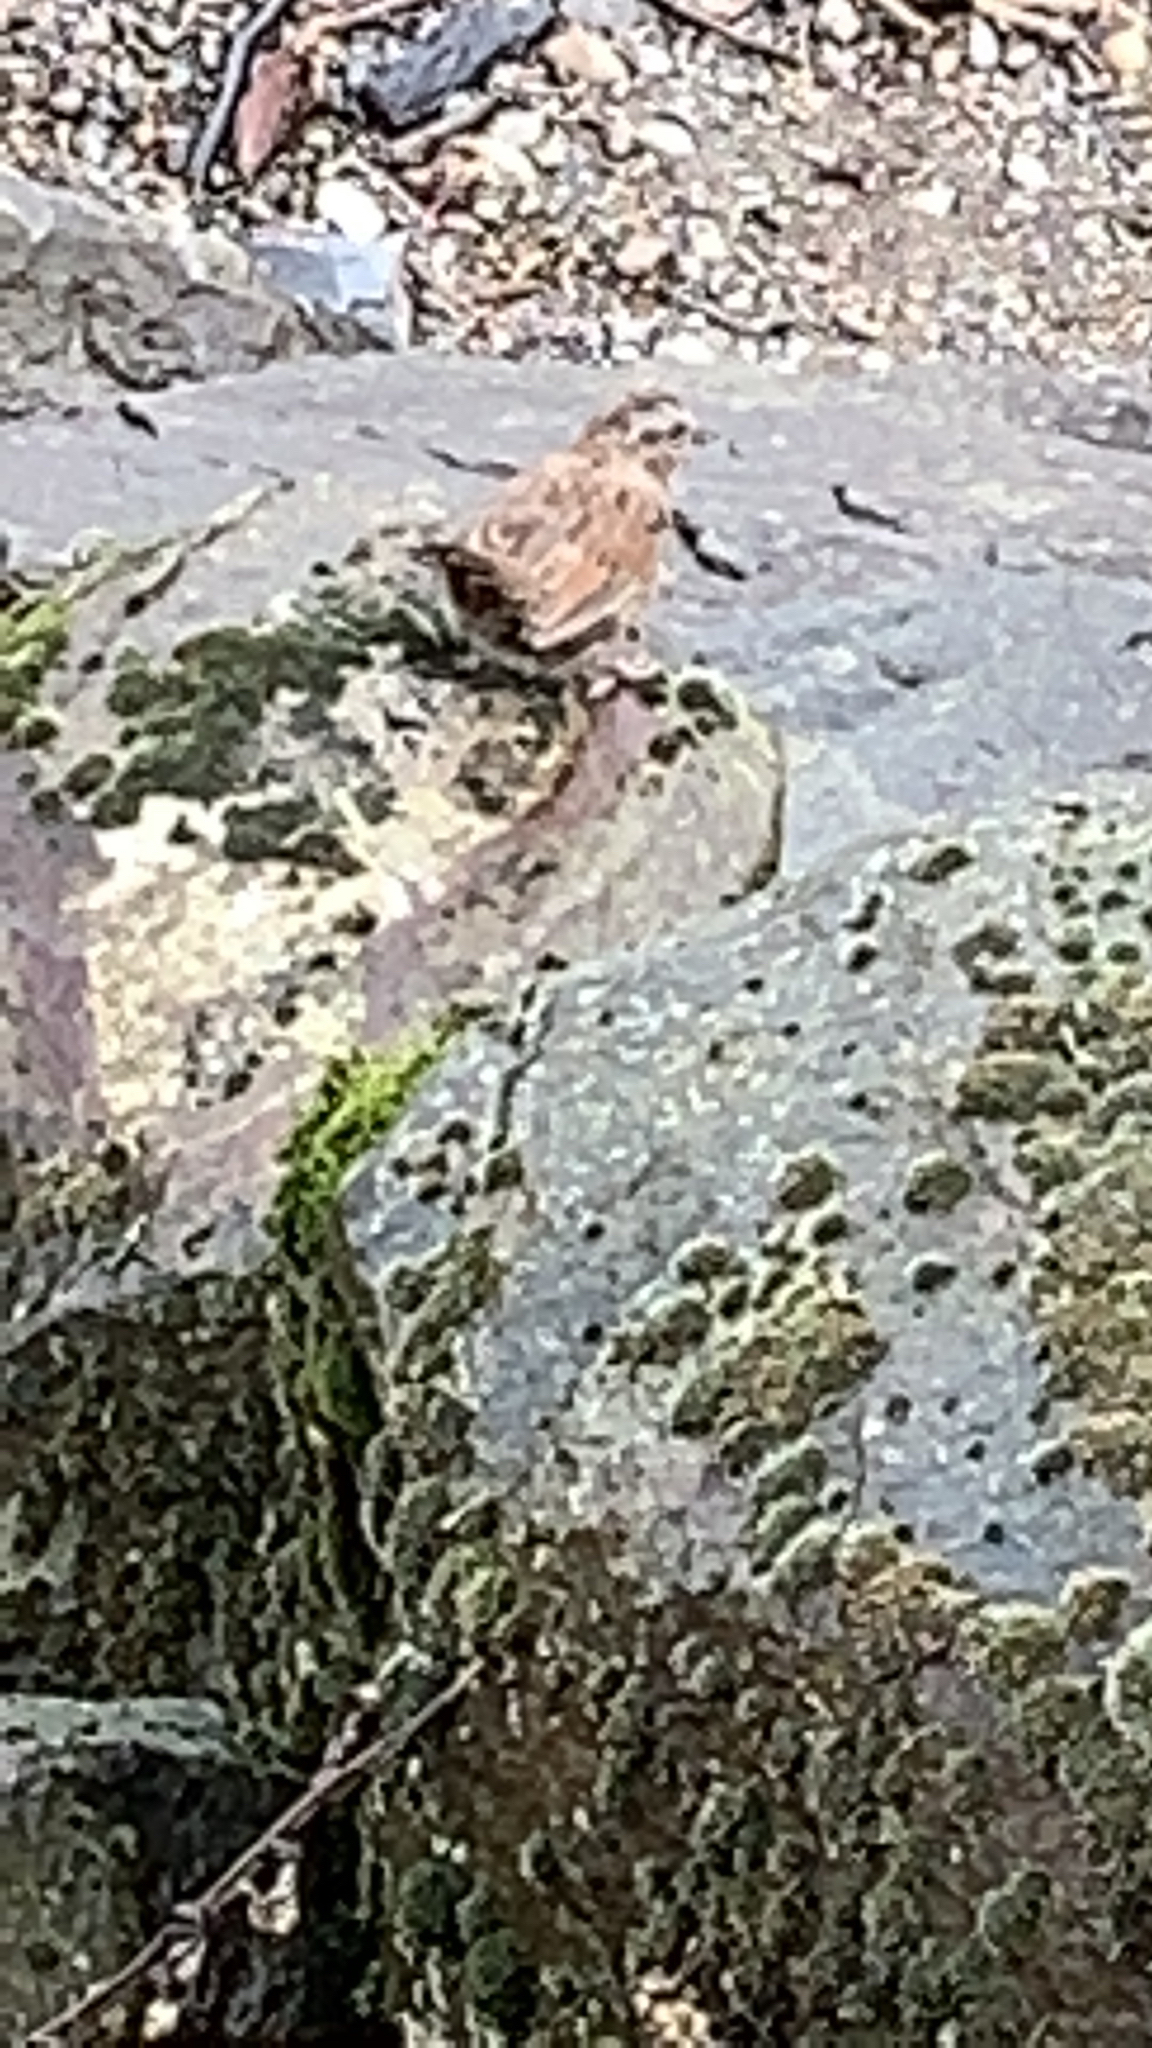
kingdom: Animalia
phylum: Chordata
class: Aves
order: Passeriformes
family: Passerellidae
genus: Melospiza
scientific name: Melospiza melodia
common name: Song sparrow
